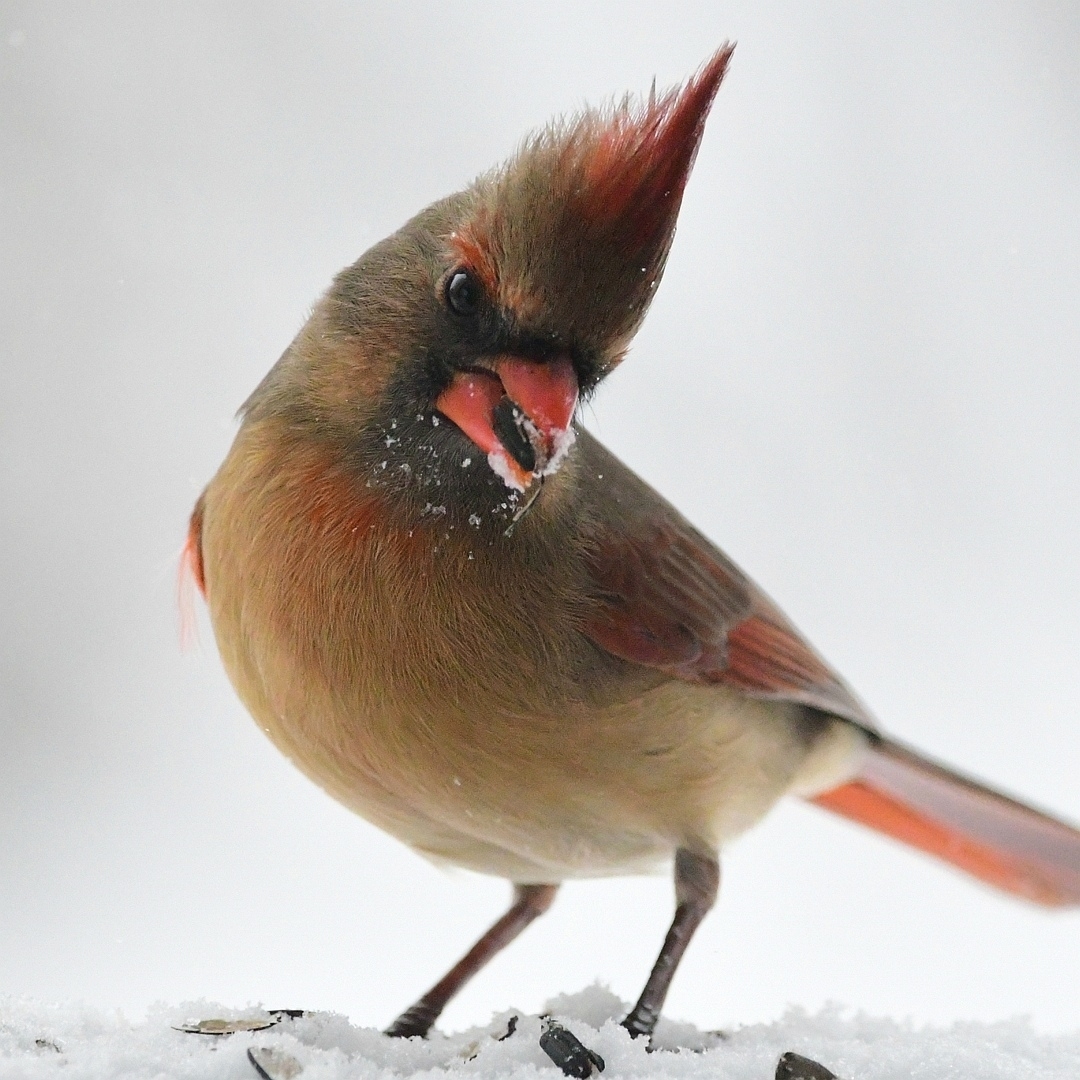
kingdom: Animalia
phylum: Chordata
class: Aves
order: Passeriformes
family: Cardinalidae
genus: Cardinalis
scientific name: Cardinalis cardinalis
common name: Northern cardinal
